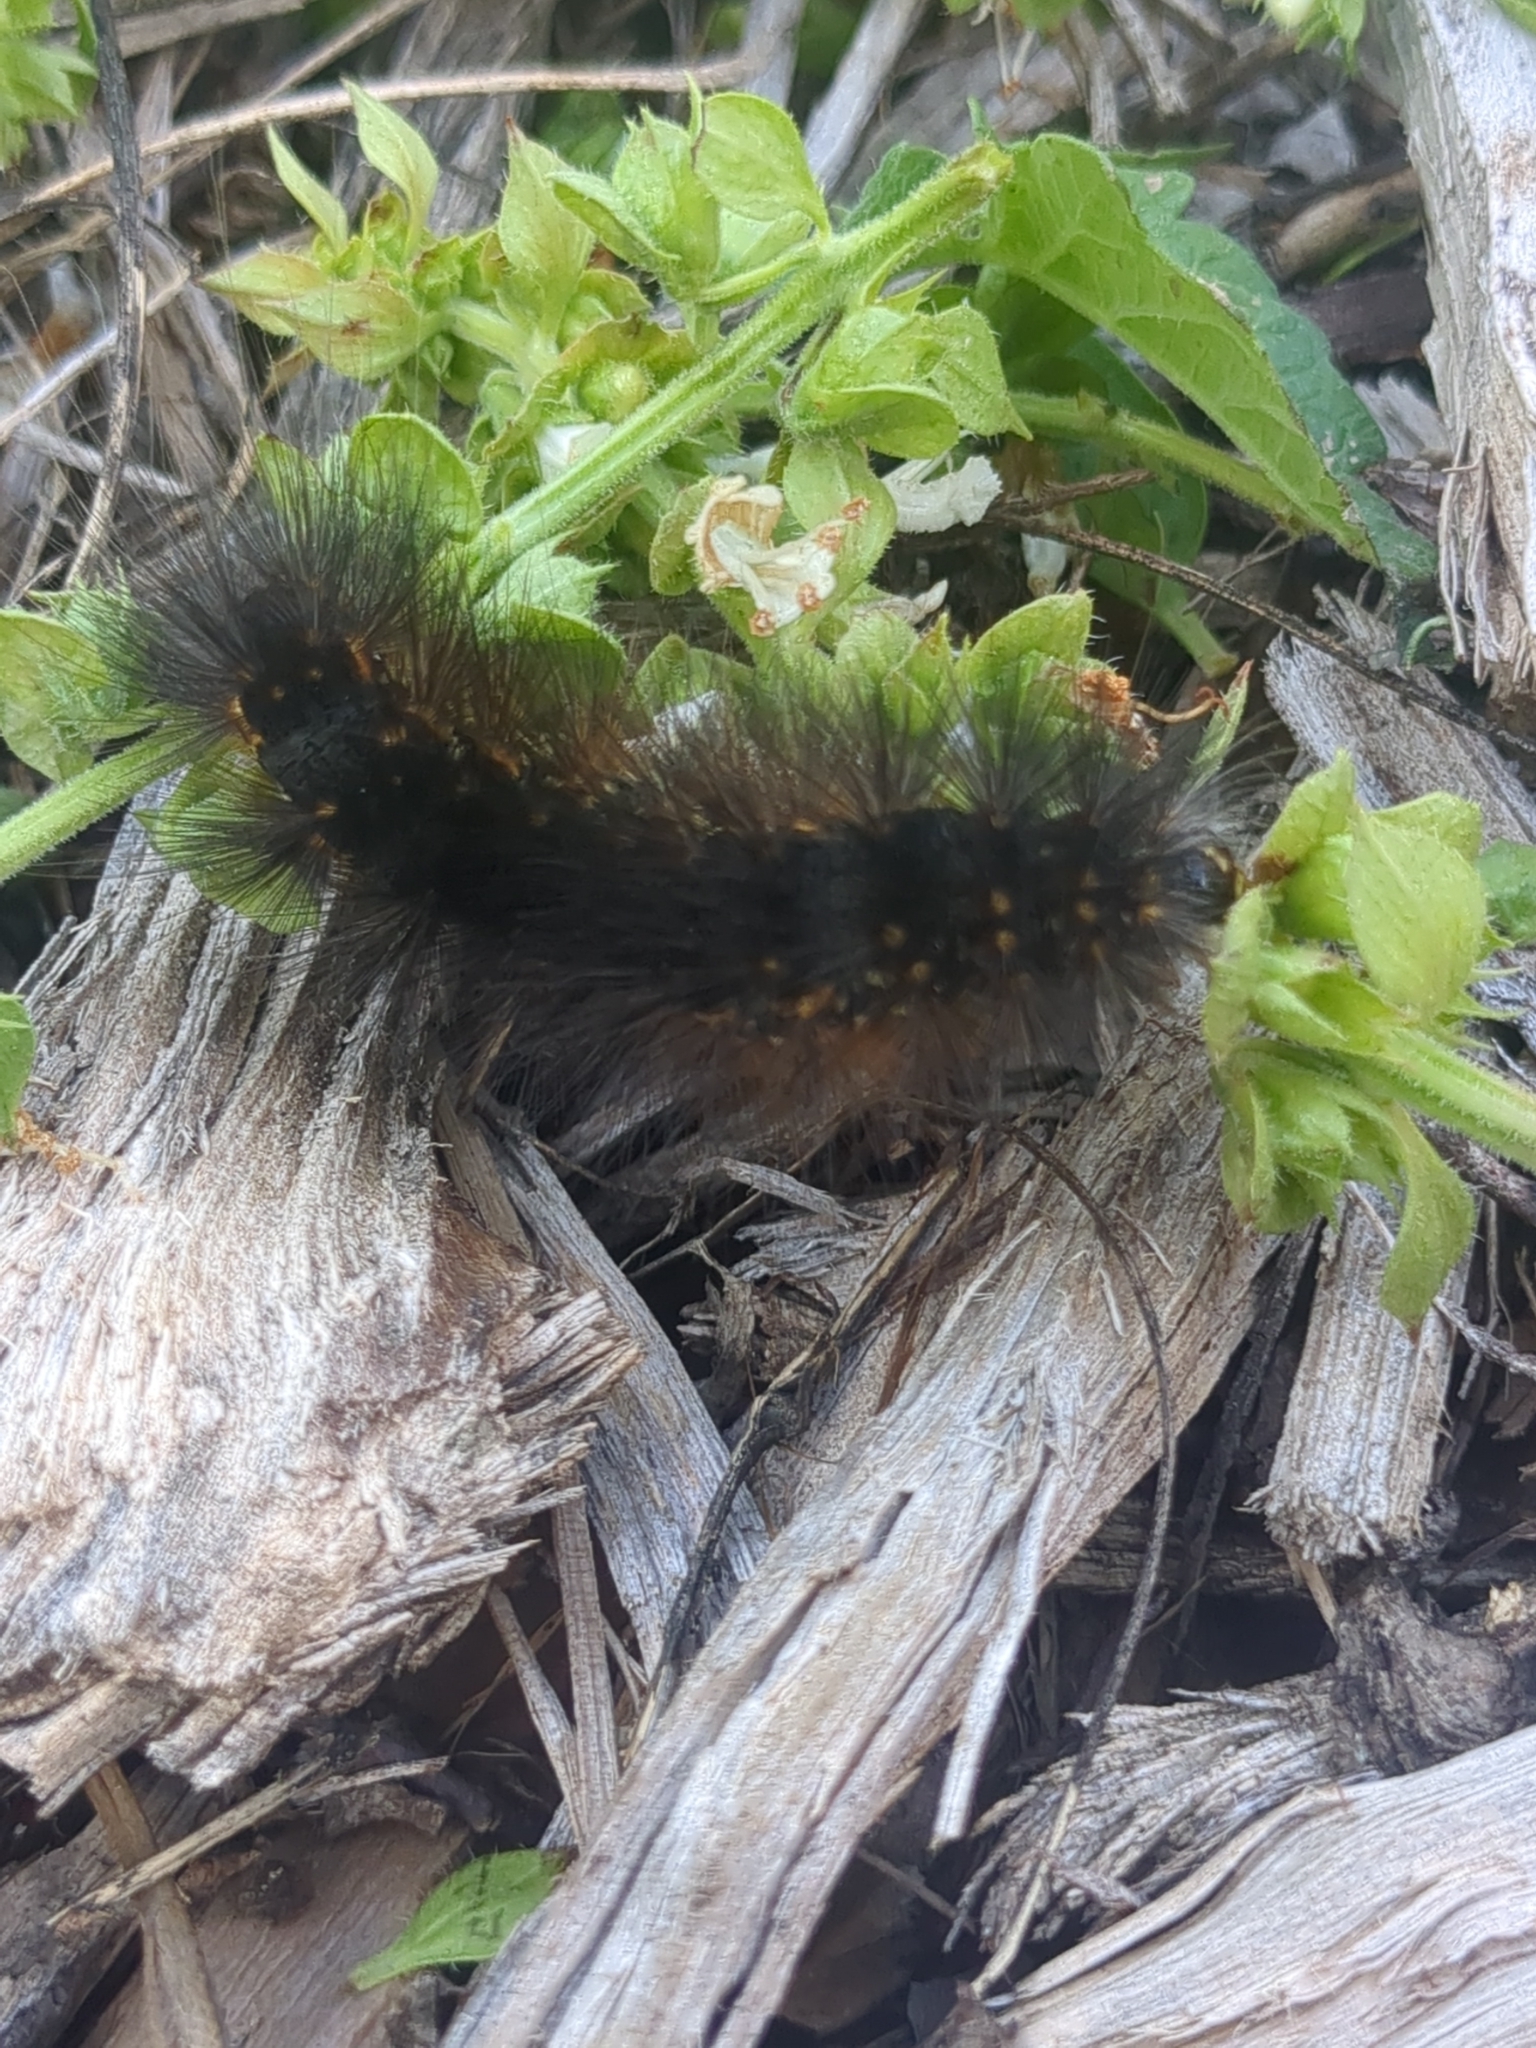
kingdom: Animalia
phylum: Arthropoda
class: Insecta
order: Lepidoptera
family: Erebidae
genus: Estigmene
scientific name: Estigmene acrea
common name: Salt marsh moth
